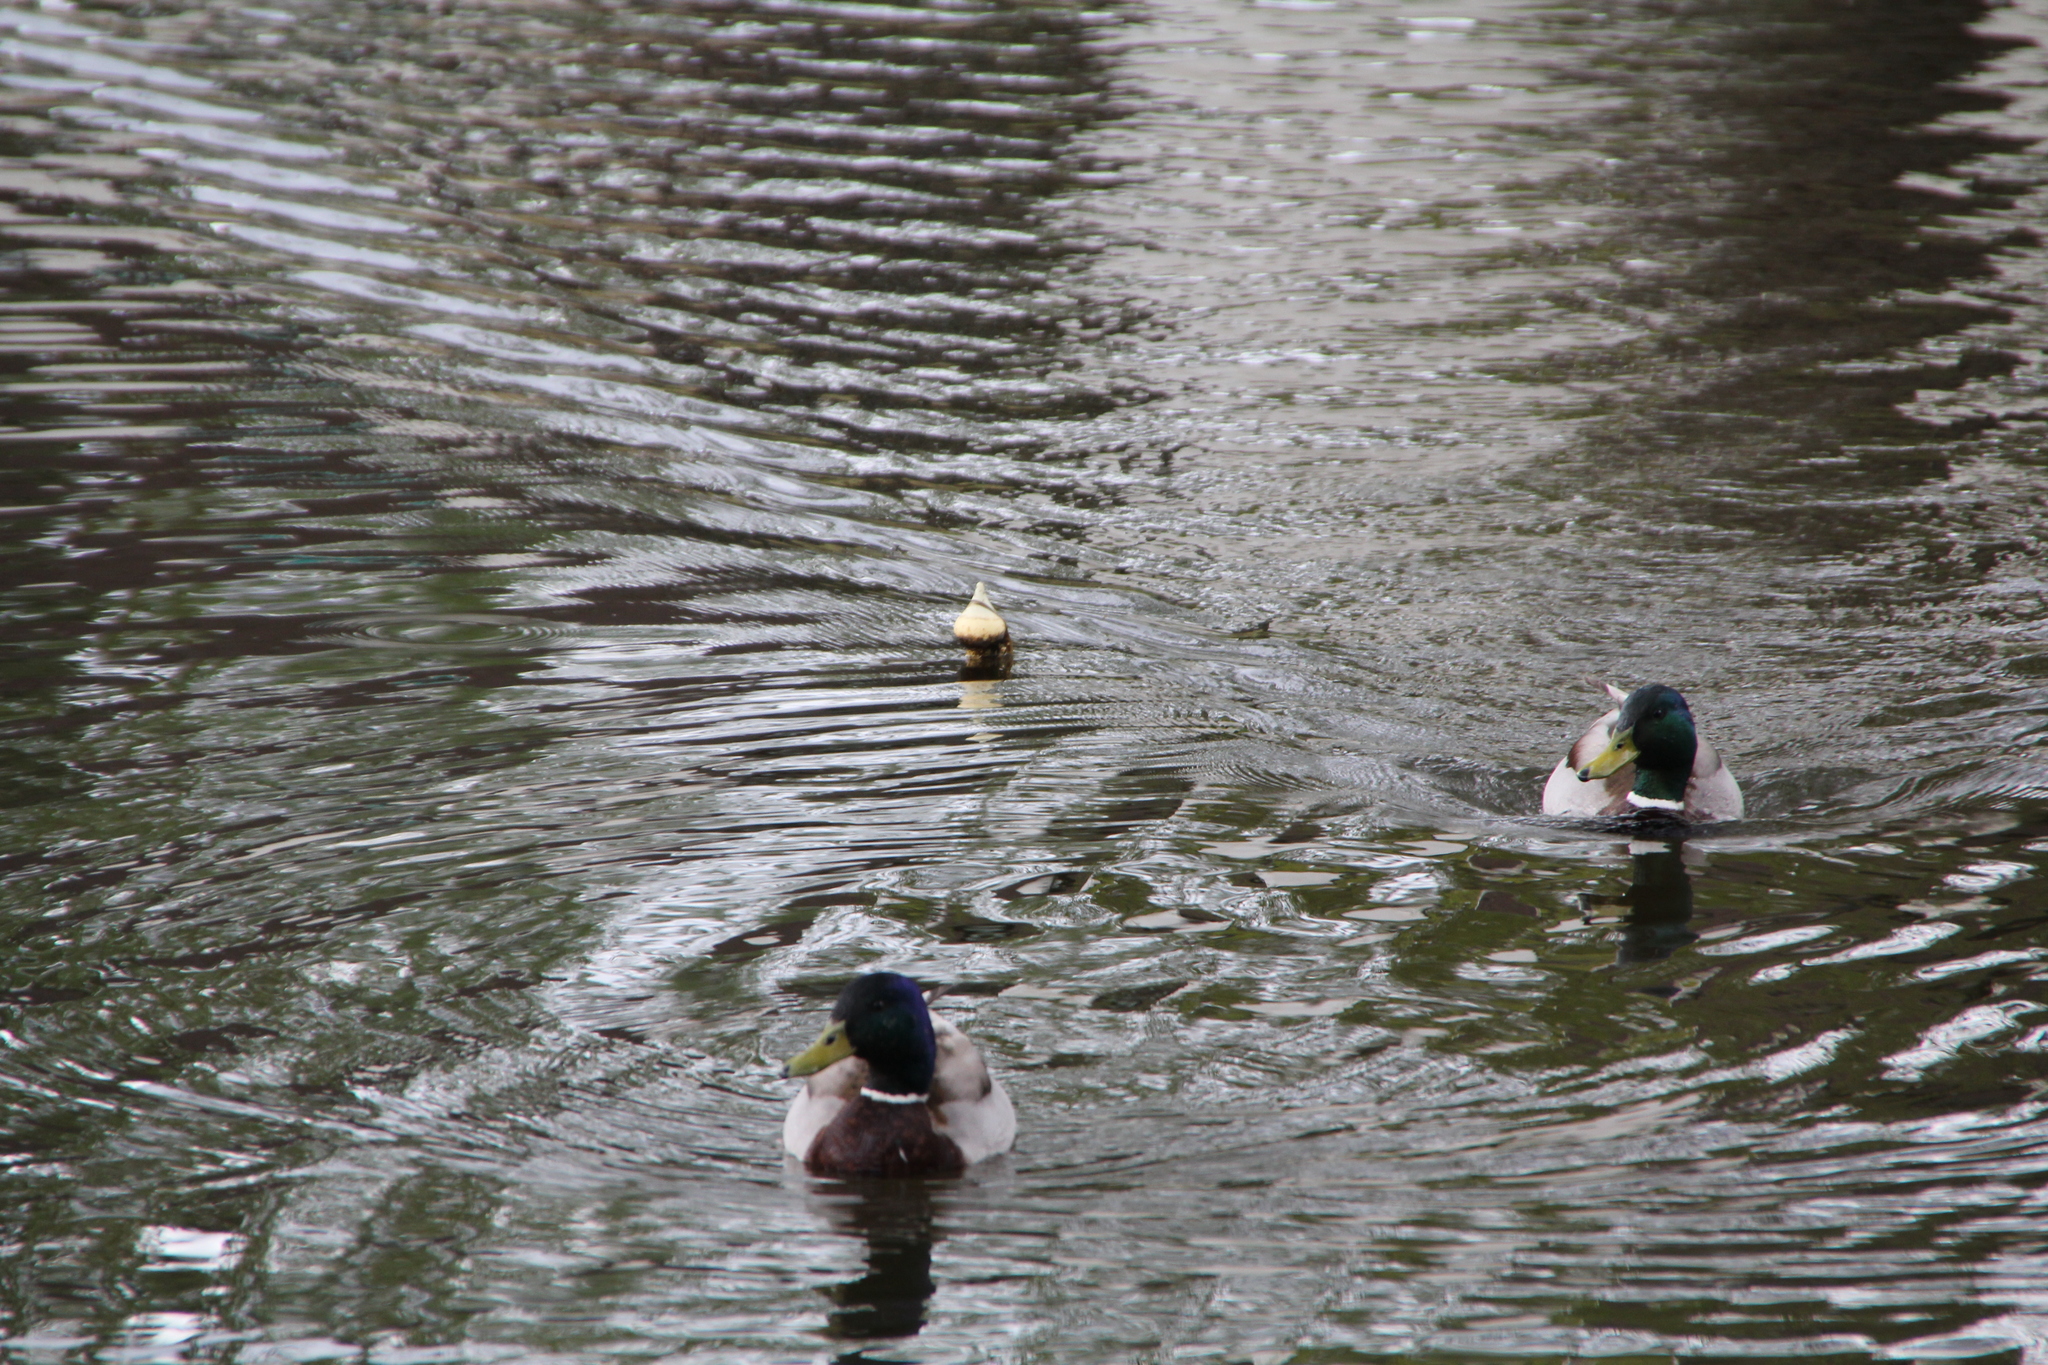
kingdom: Animalia
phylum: Chordata
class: Aves
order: Anseriformes
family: Anatidae
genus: Anas
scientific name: Anas platyrhynchos
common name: Mallard
